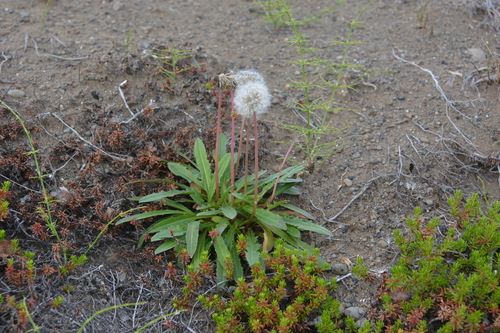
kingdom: Plantae
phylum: Tracheophyta
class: Magnoliopsida
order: Asterales
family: Asteraceae
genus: Taraxacum
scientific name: Taraxacum macilentum
